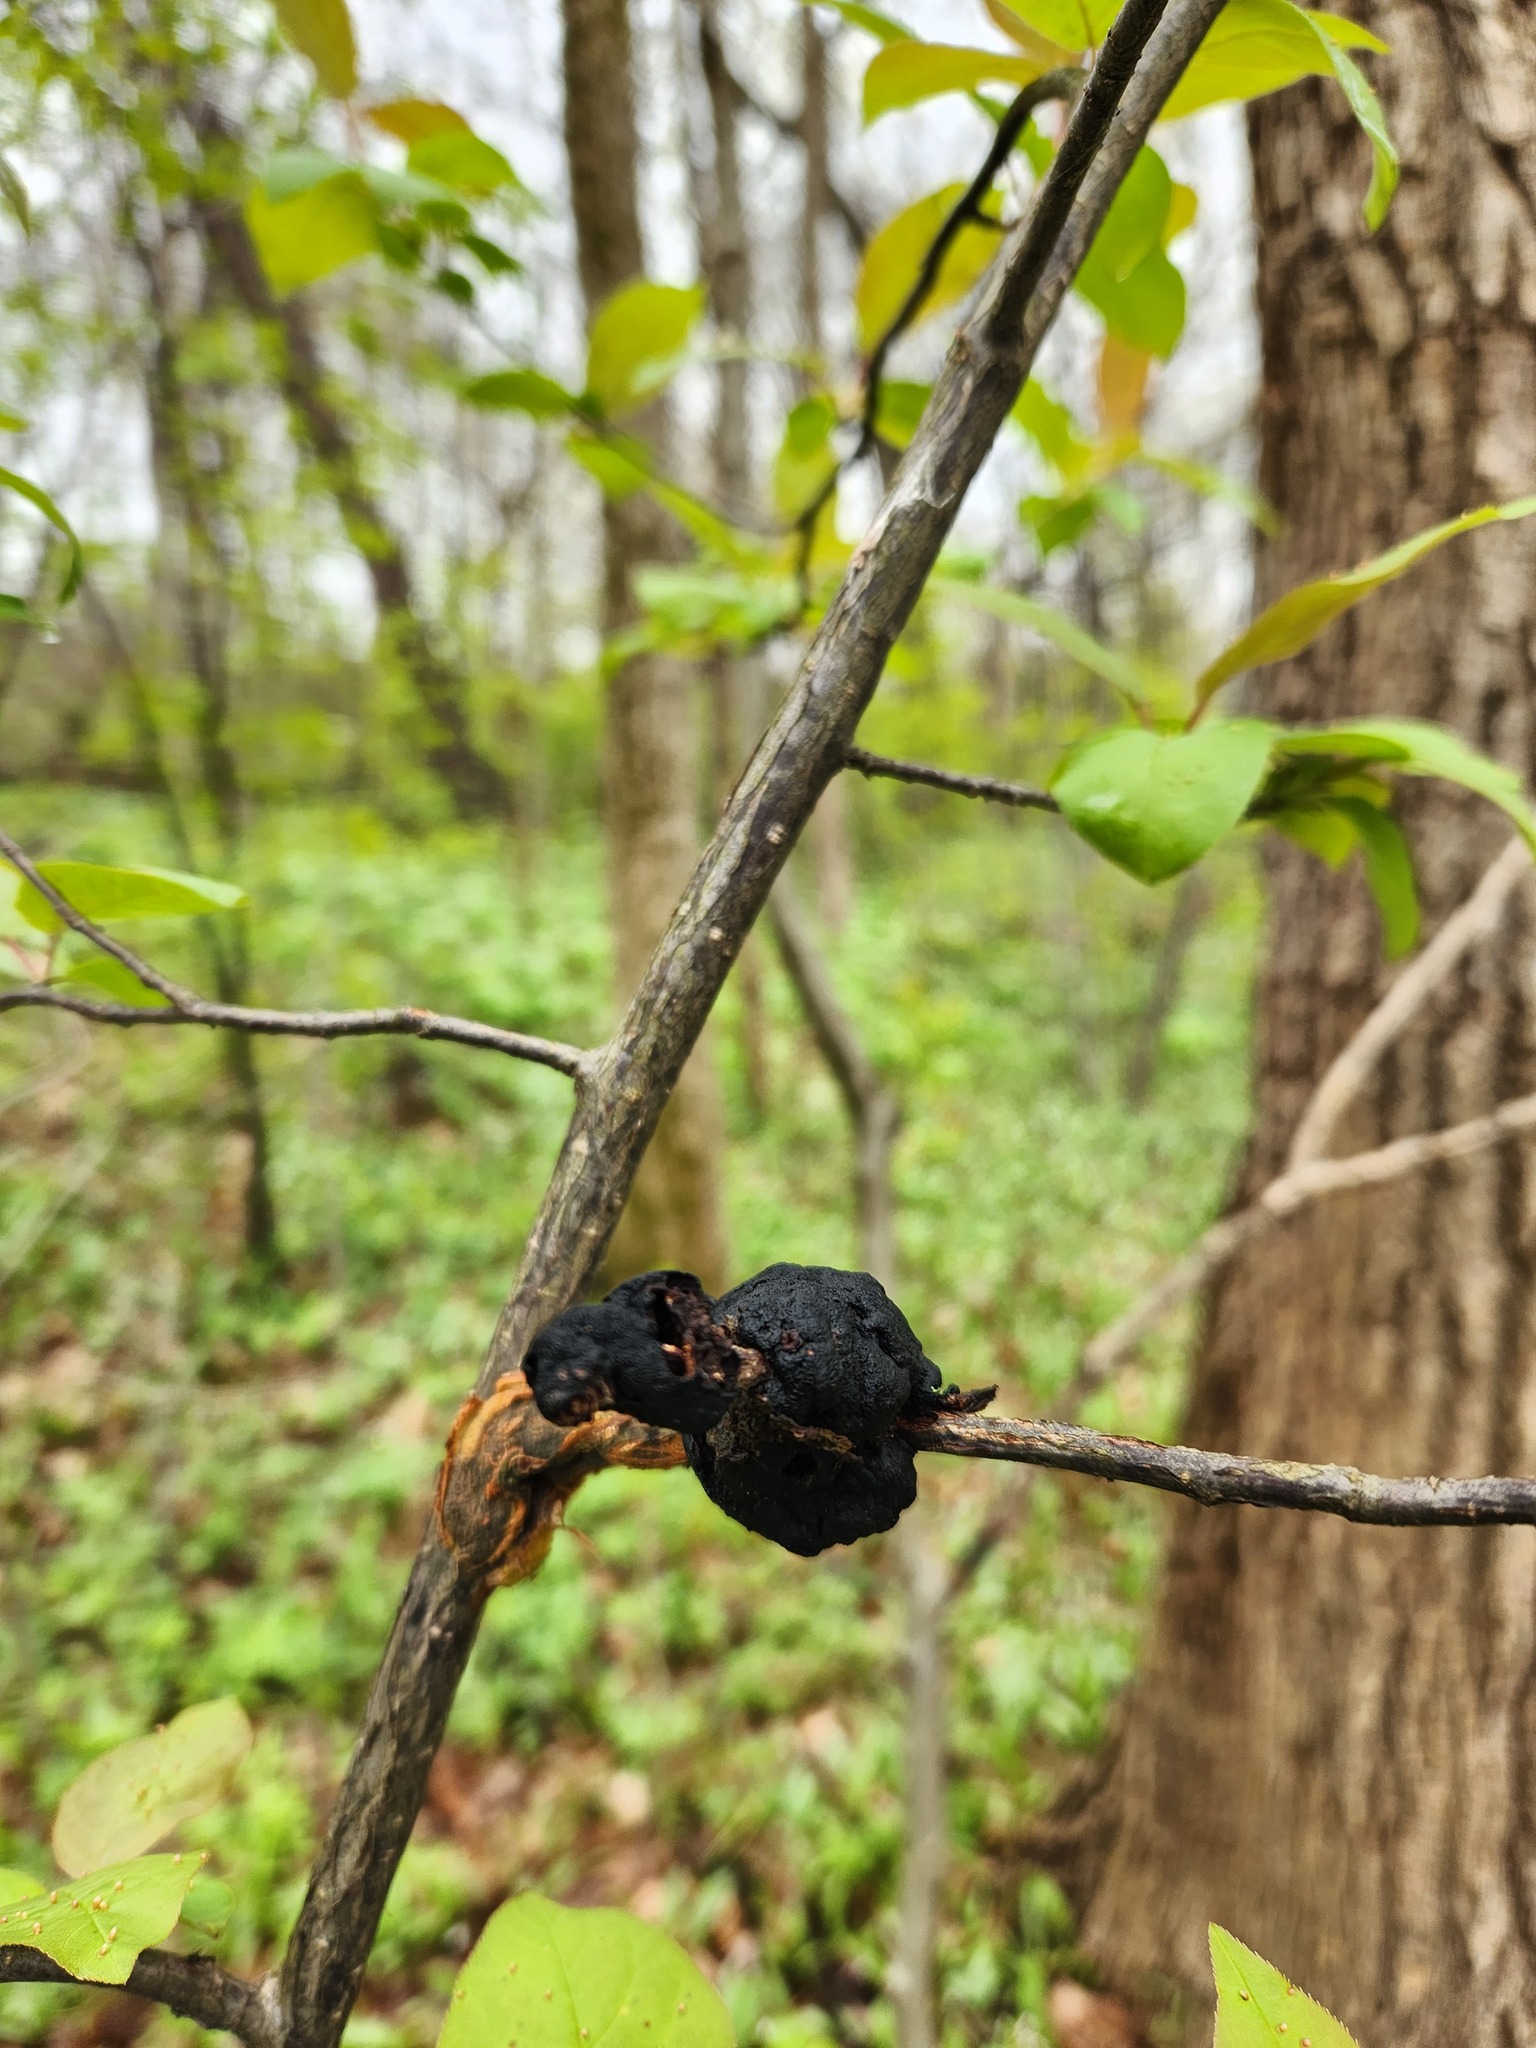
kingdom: Fungi
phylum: Ascomycota
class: Dothideomycetes
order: Venturiales
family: Venturiaceae
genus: Apiosporina
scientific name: Apiosporina morbosa
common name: Black knot
